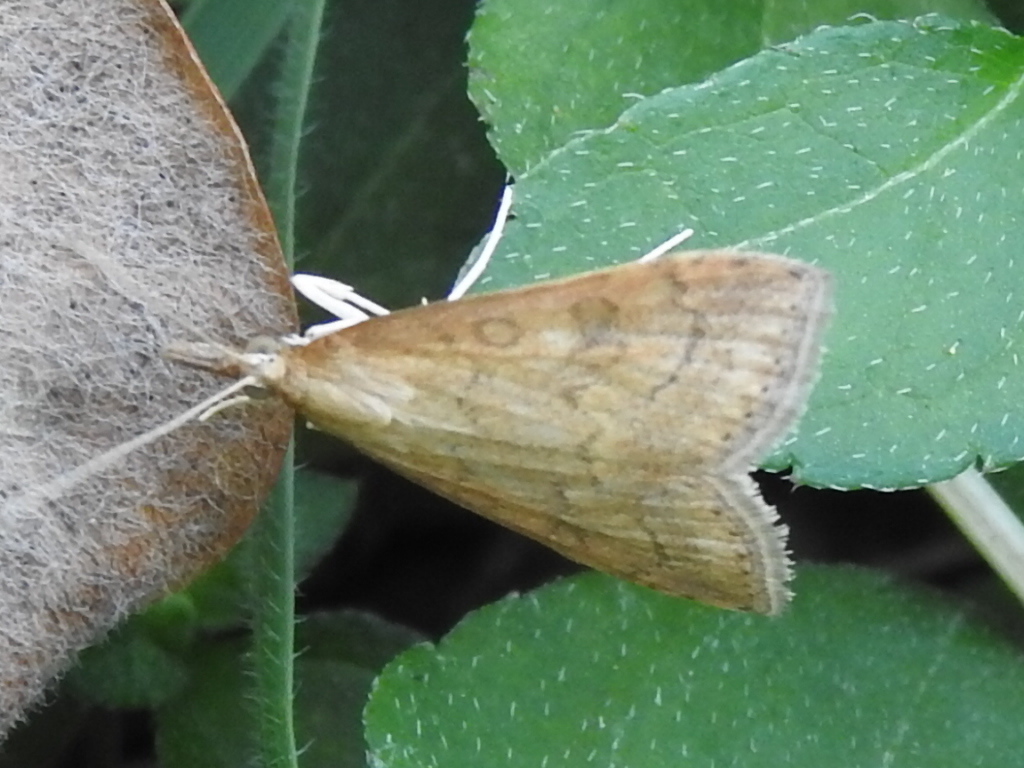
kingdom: Animalia
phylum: Arthropoda
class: Insecta
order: Lepidoptera
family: Crambidae
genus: Udea
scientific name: Udea rubigalis
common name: Celery leaftier moth
